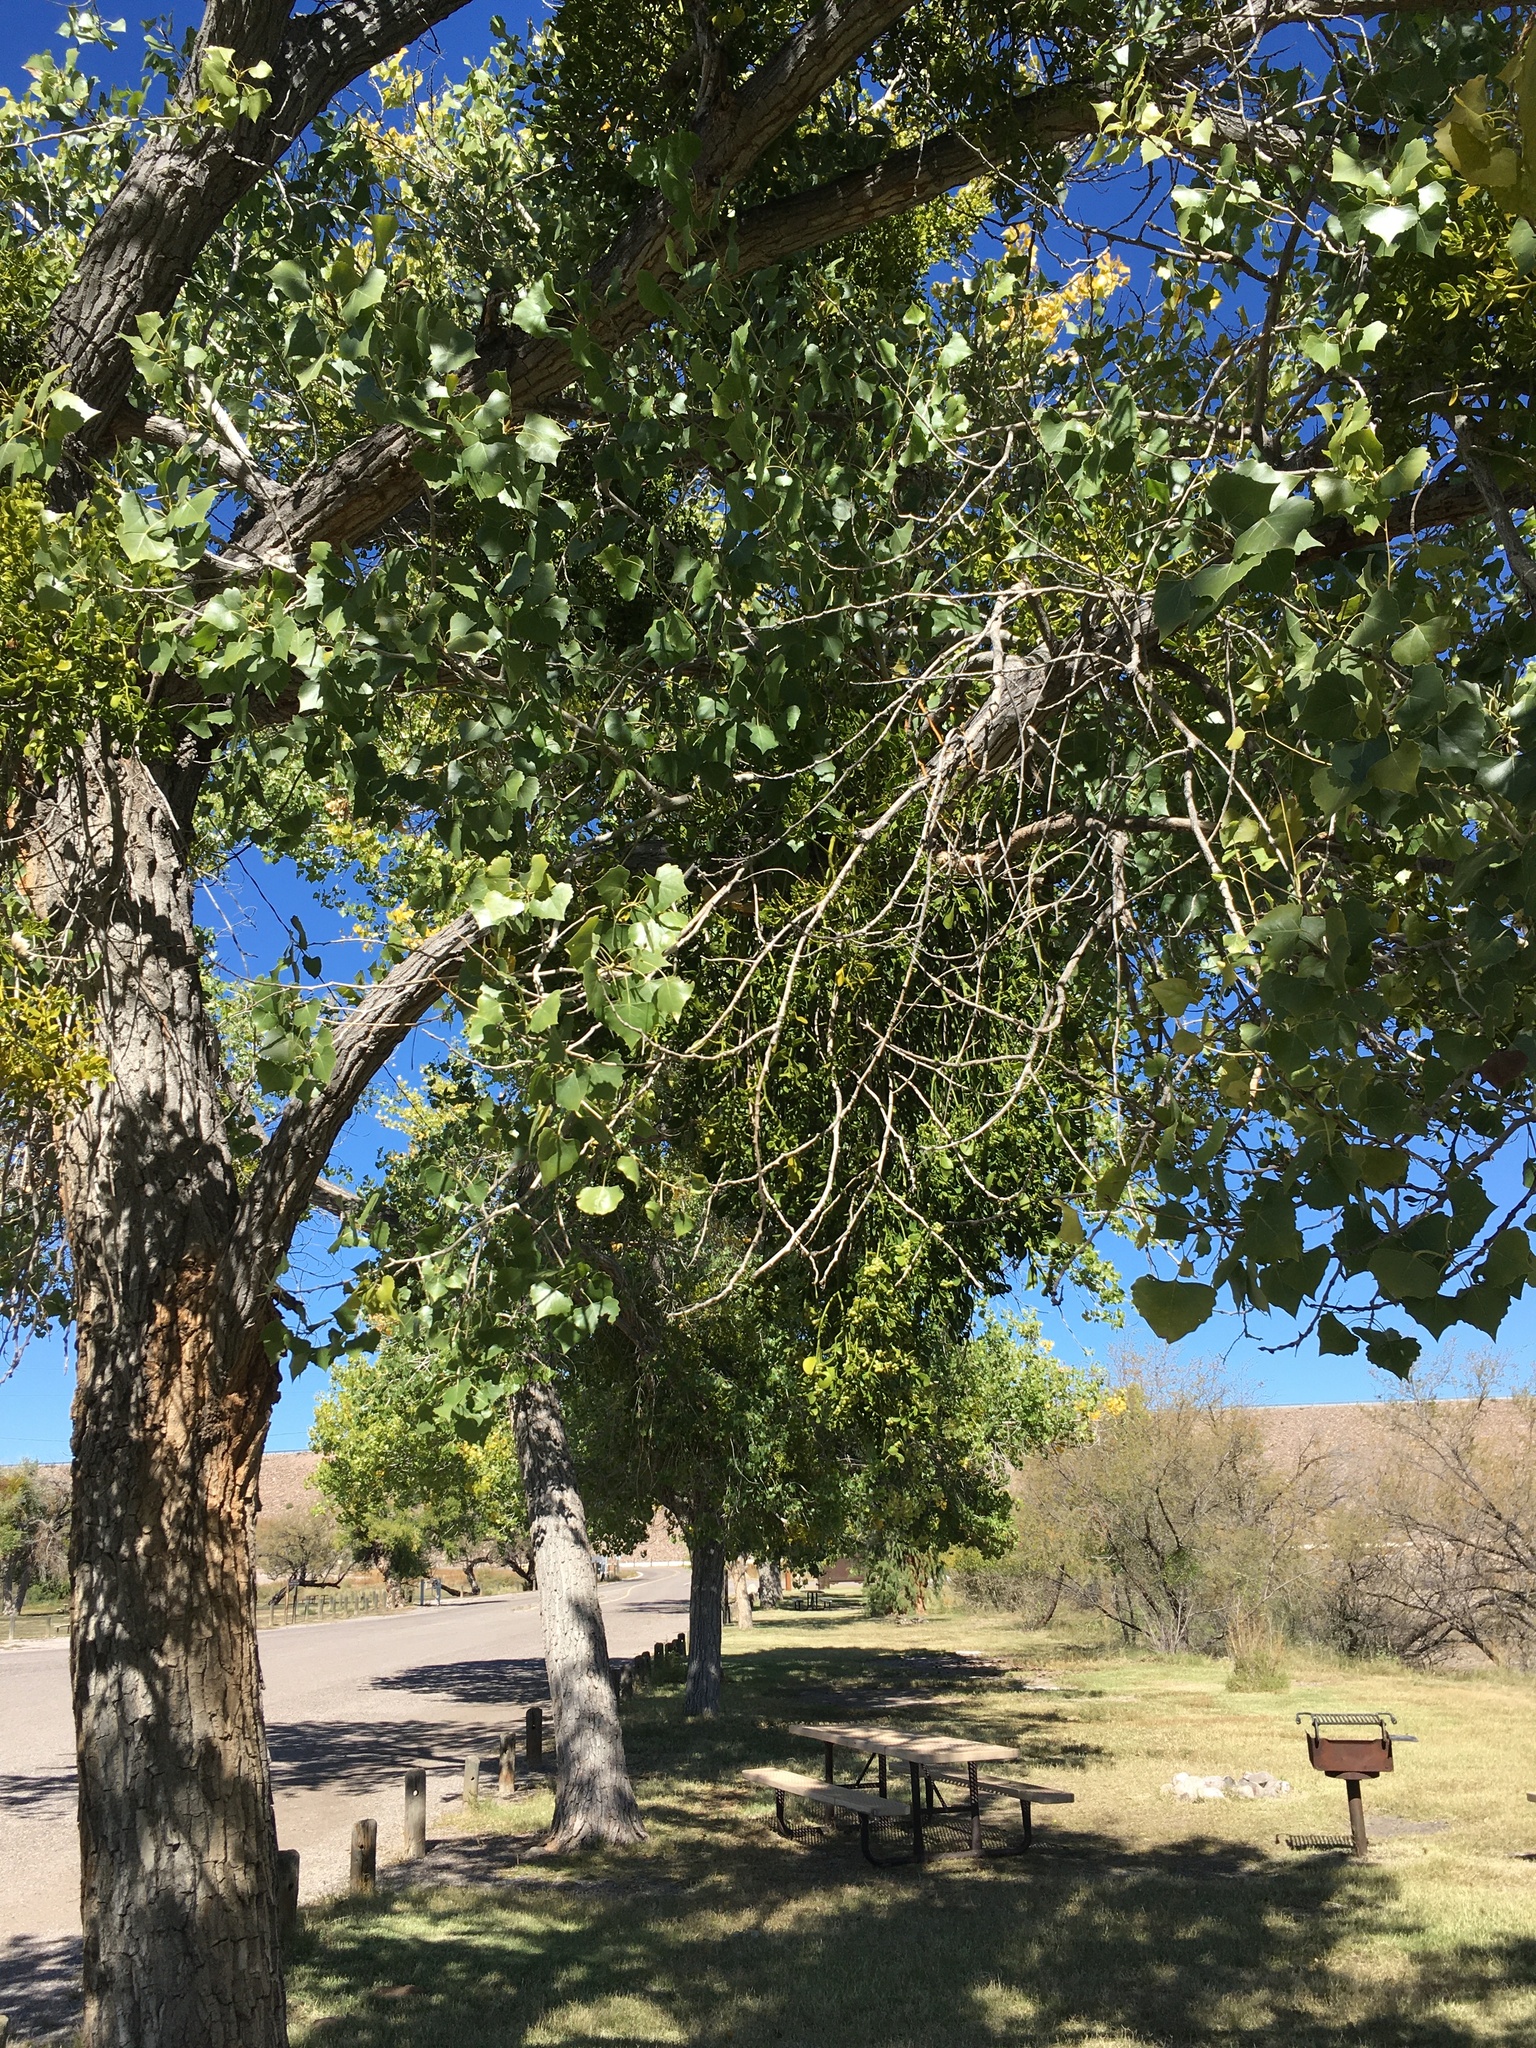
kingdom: Plantae
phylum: Tracheophyta
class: Magnoliopsida
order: Santalales
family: Viscaceae
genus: Phoradendron
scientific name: Phoradendron
